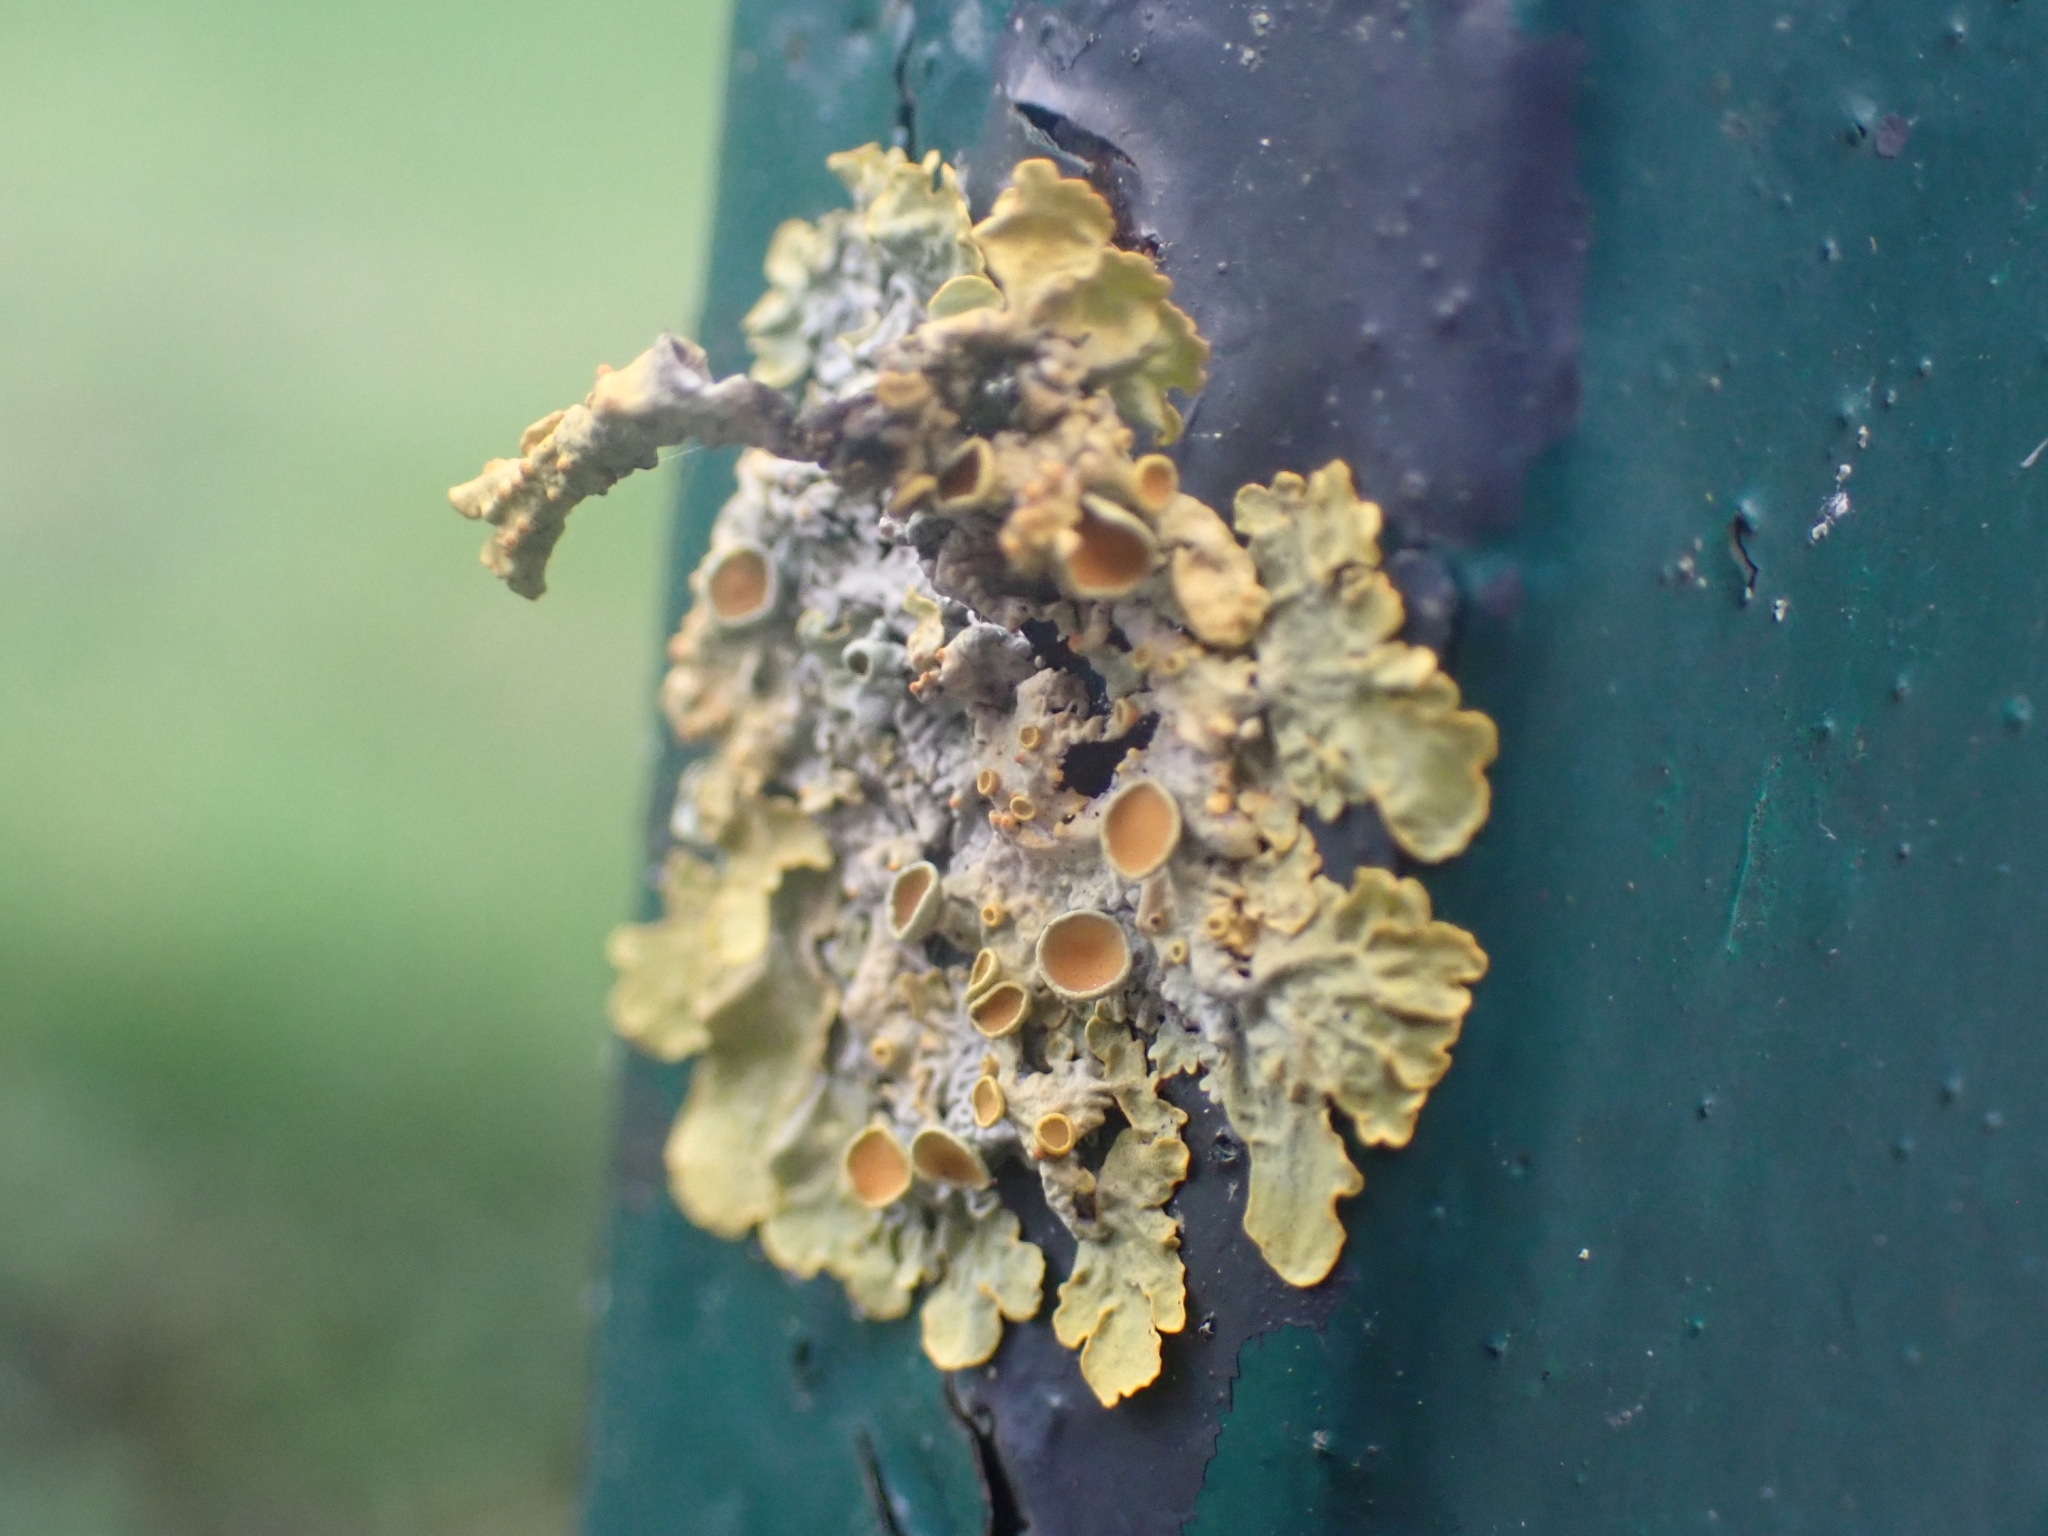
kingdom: Fungi
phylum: Ascomycota
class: Lecanoromycetes
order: Teloschistales
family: Teloschistaceae
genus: Xanthoria
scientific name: Xanthoria parietina
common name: Common orange lichen
